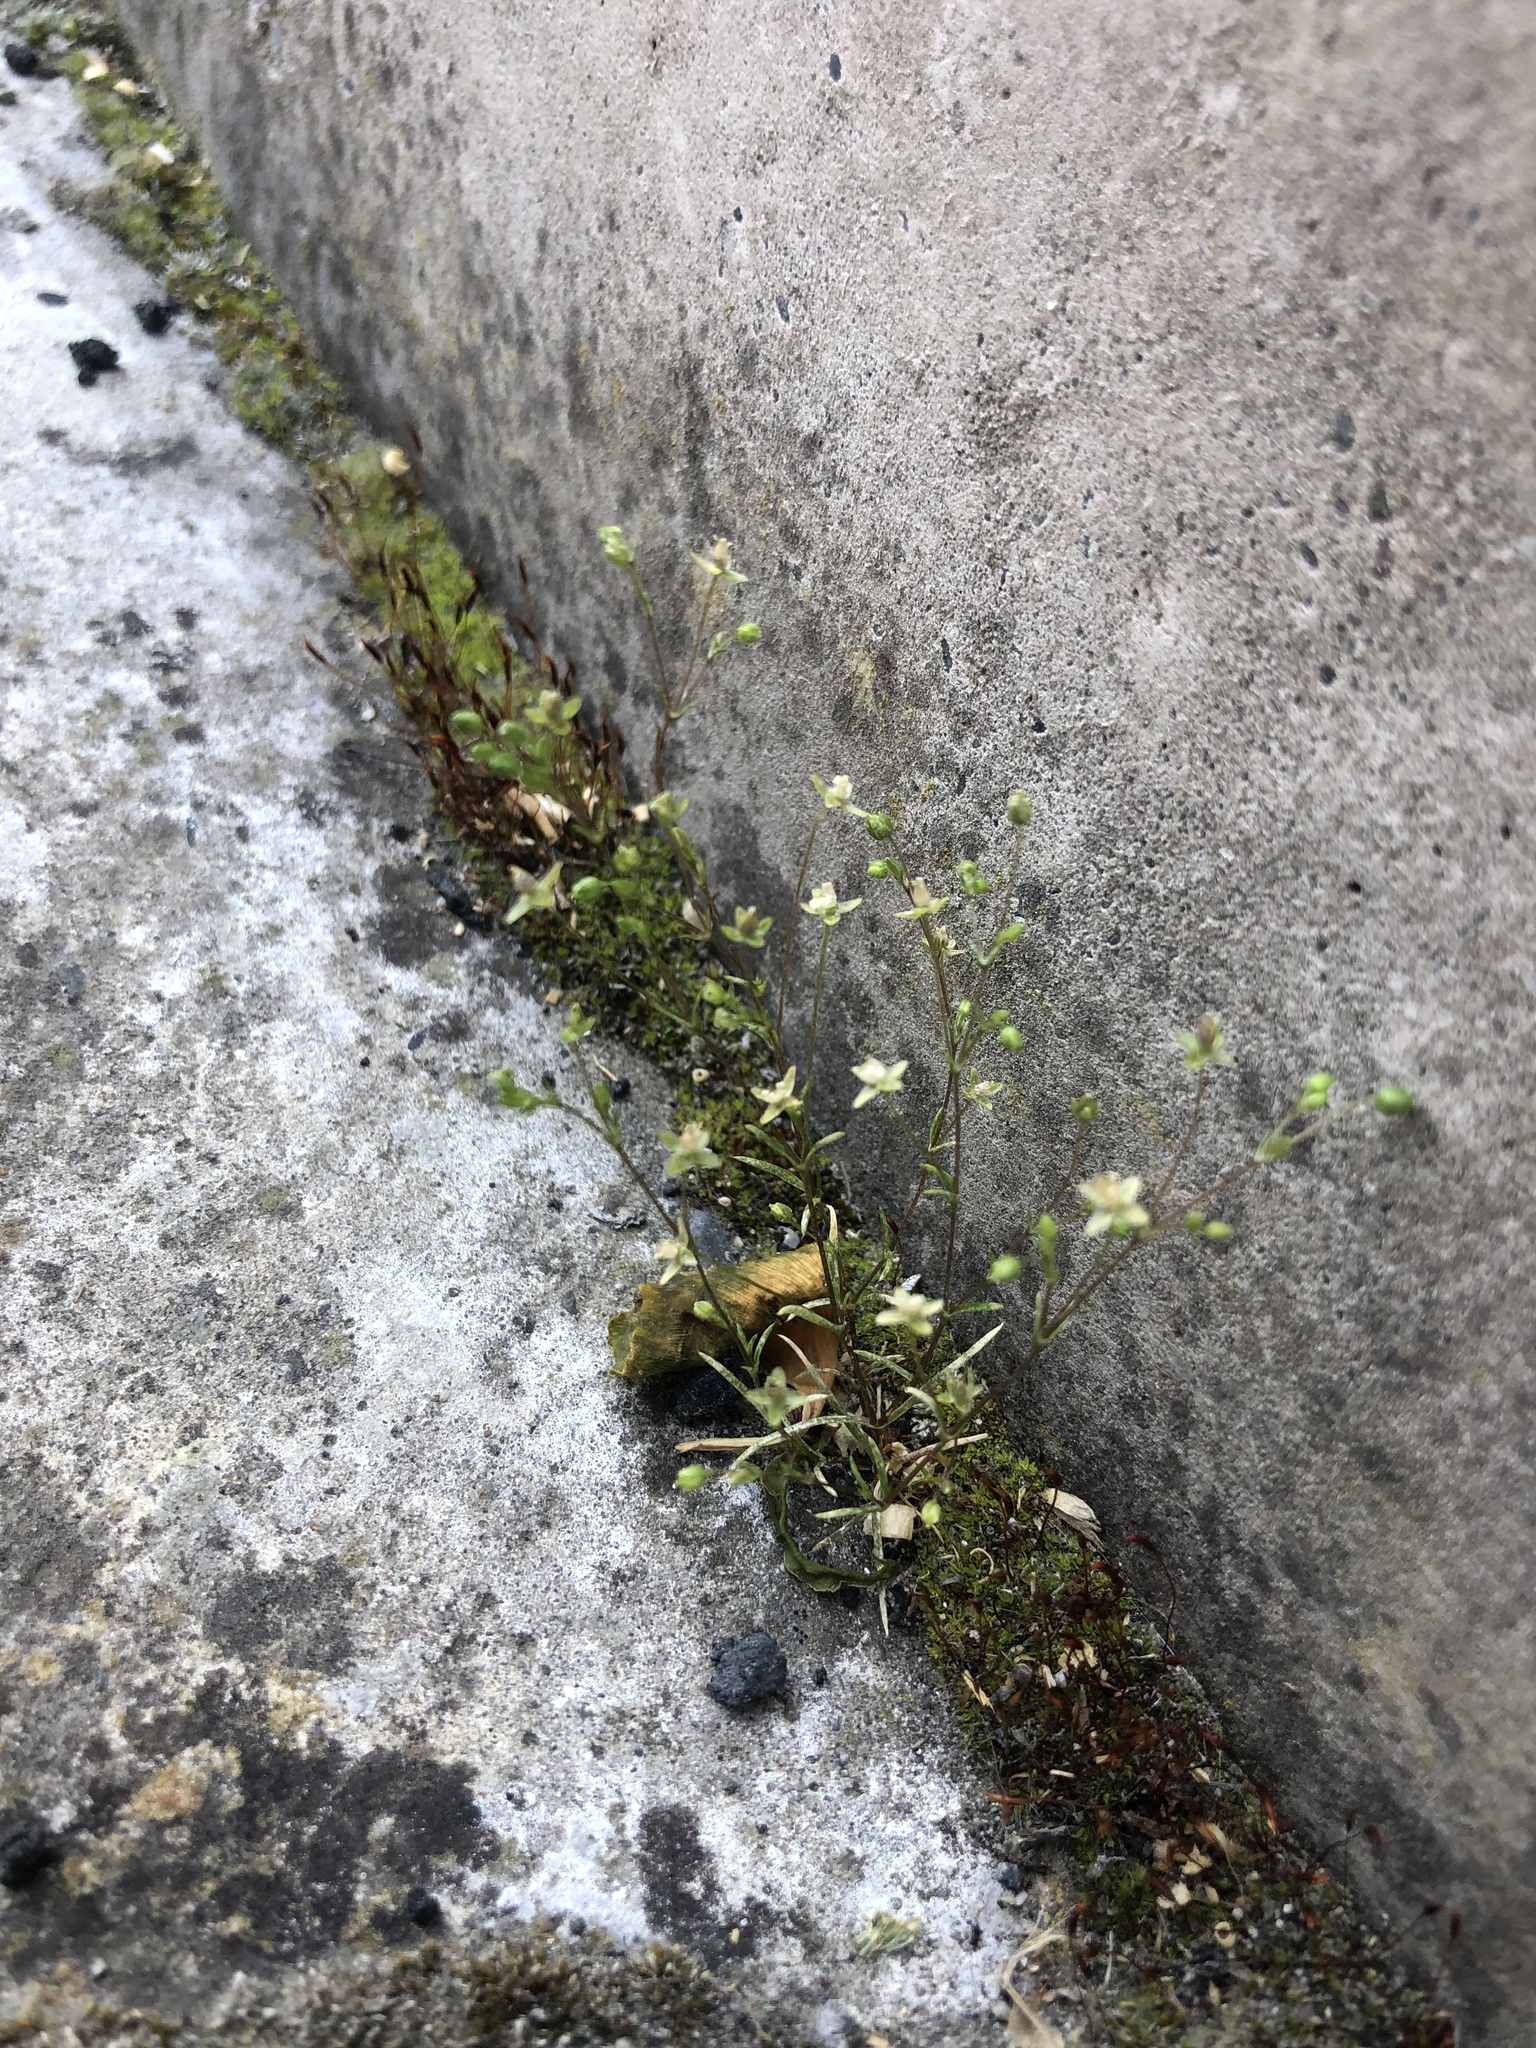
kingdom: Plantae
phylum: Tracheophyta
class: Magnoliopsida
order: Caryophyllales
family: Caryophyllaceae
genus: Sagina
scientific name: Sagina apetala
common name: Annual pearlwort
